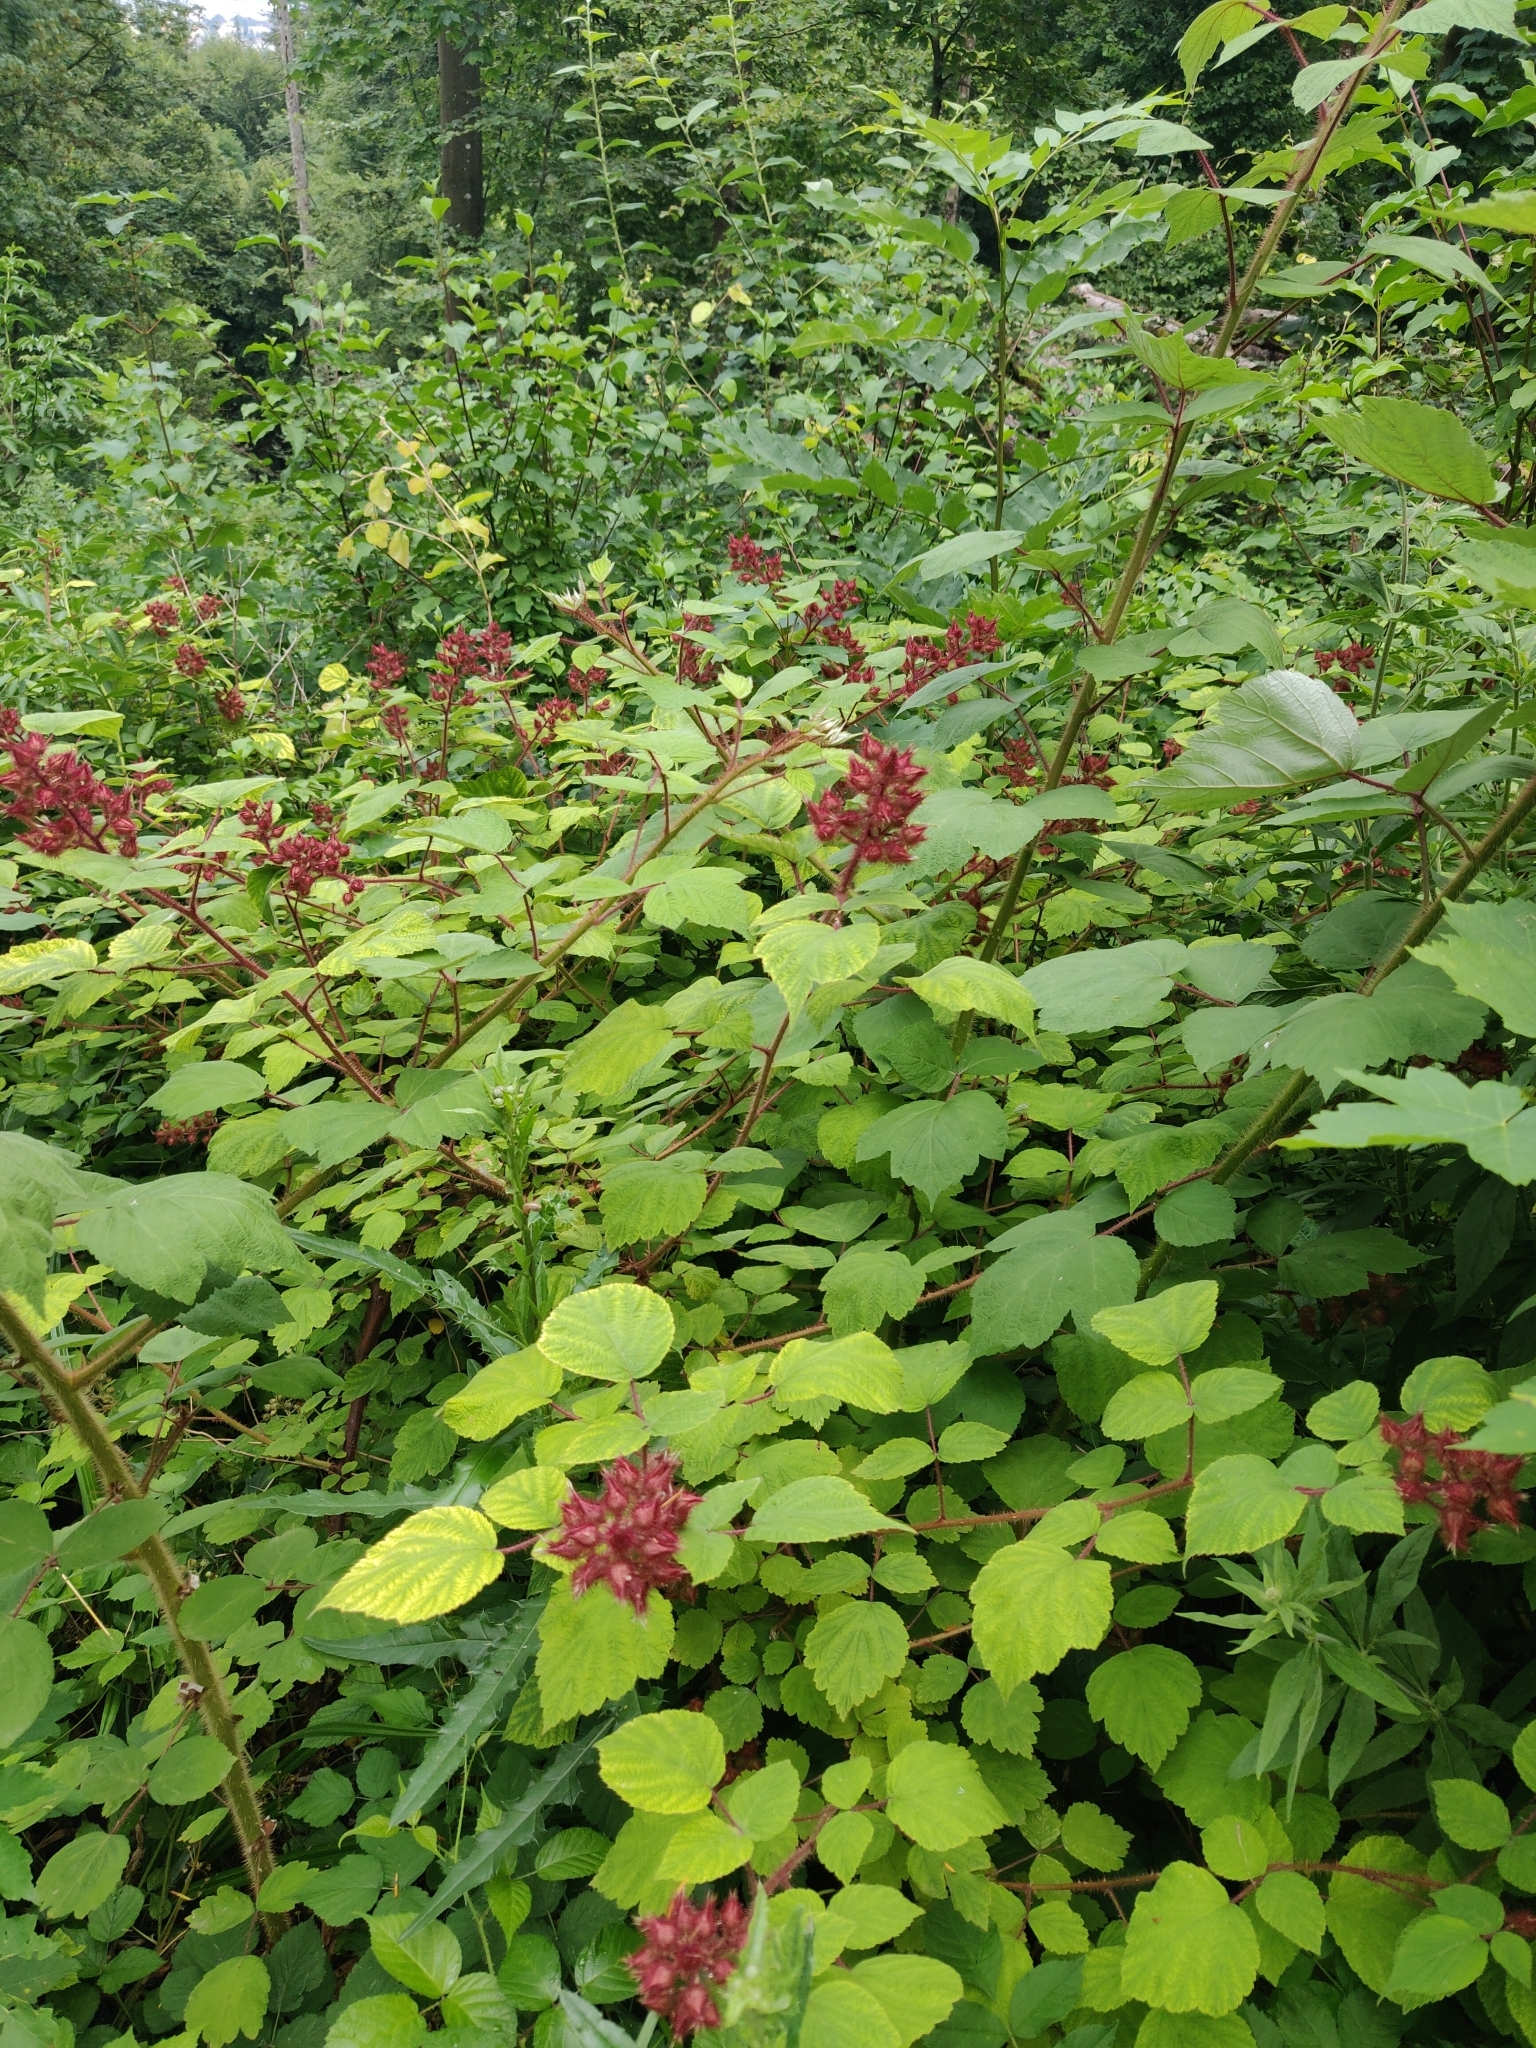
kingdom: Plantae
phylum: Tracheophyta
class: Magnoliopsida
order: Rosales
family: Rosaceae
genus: Rubus
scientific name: Rubus phoenicolasius
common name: Japanese wineberry
